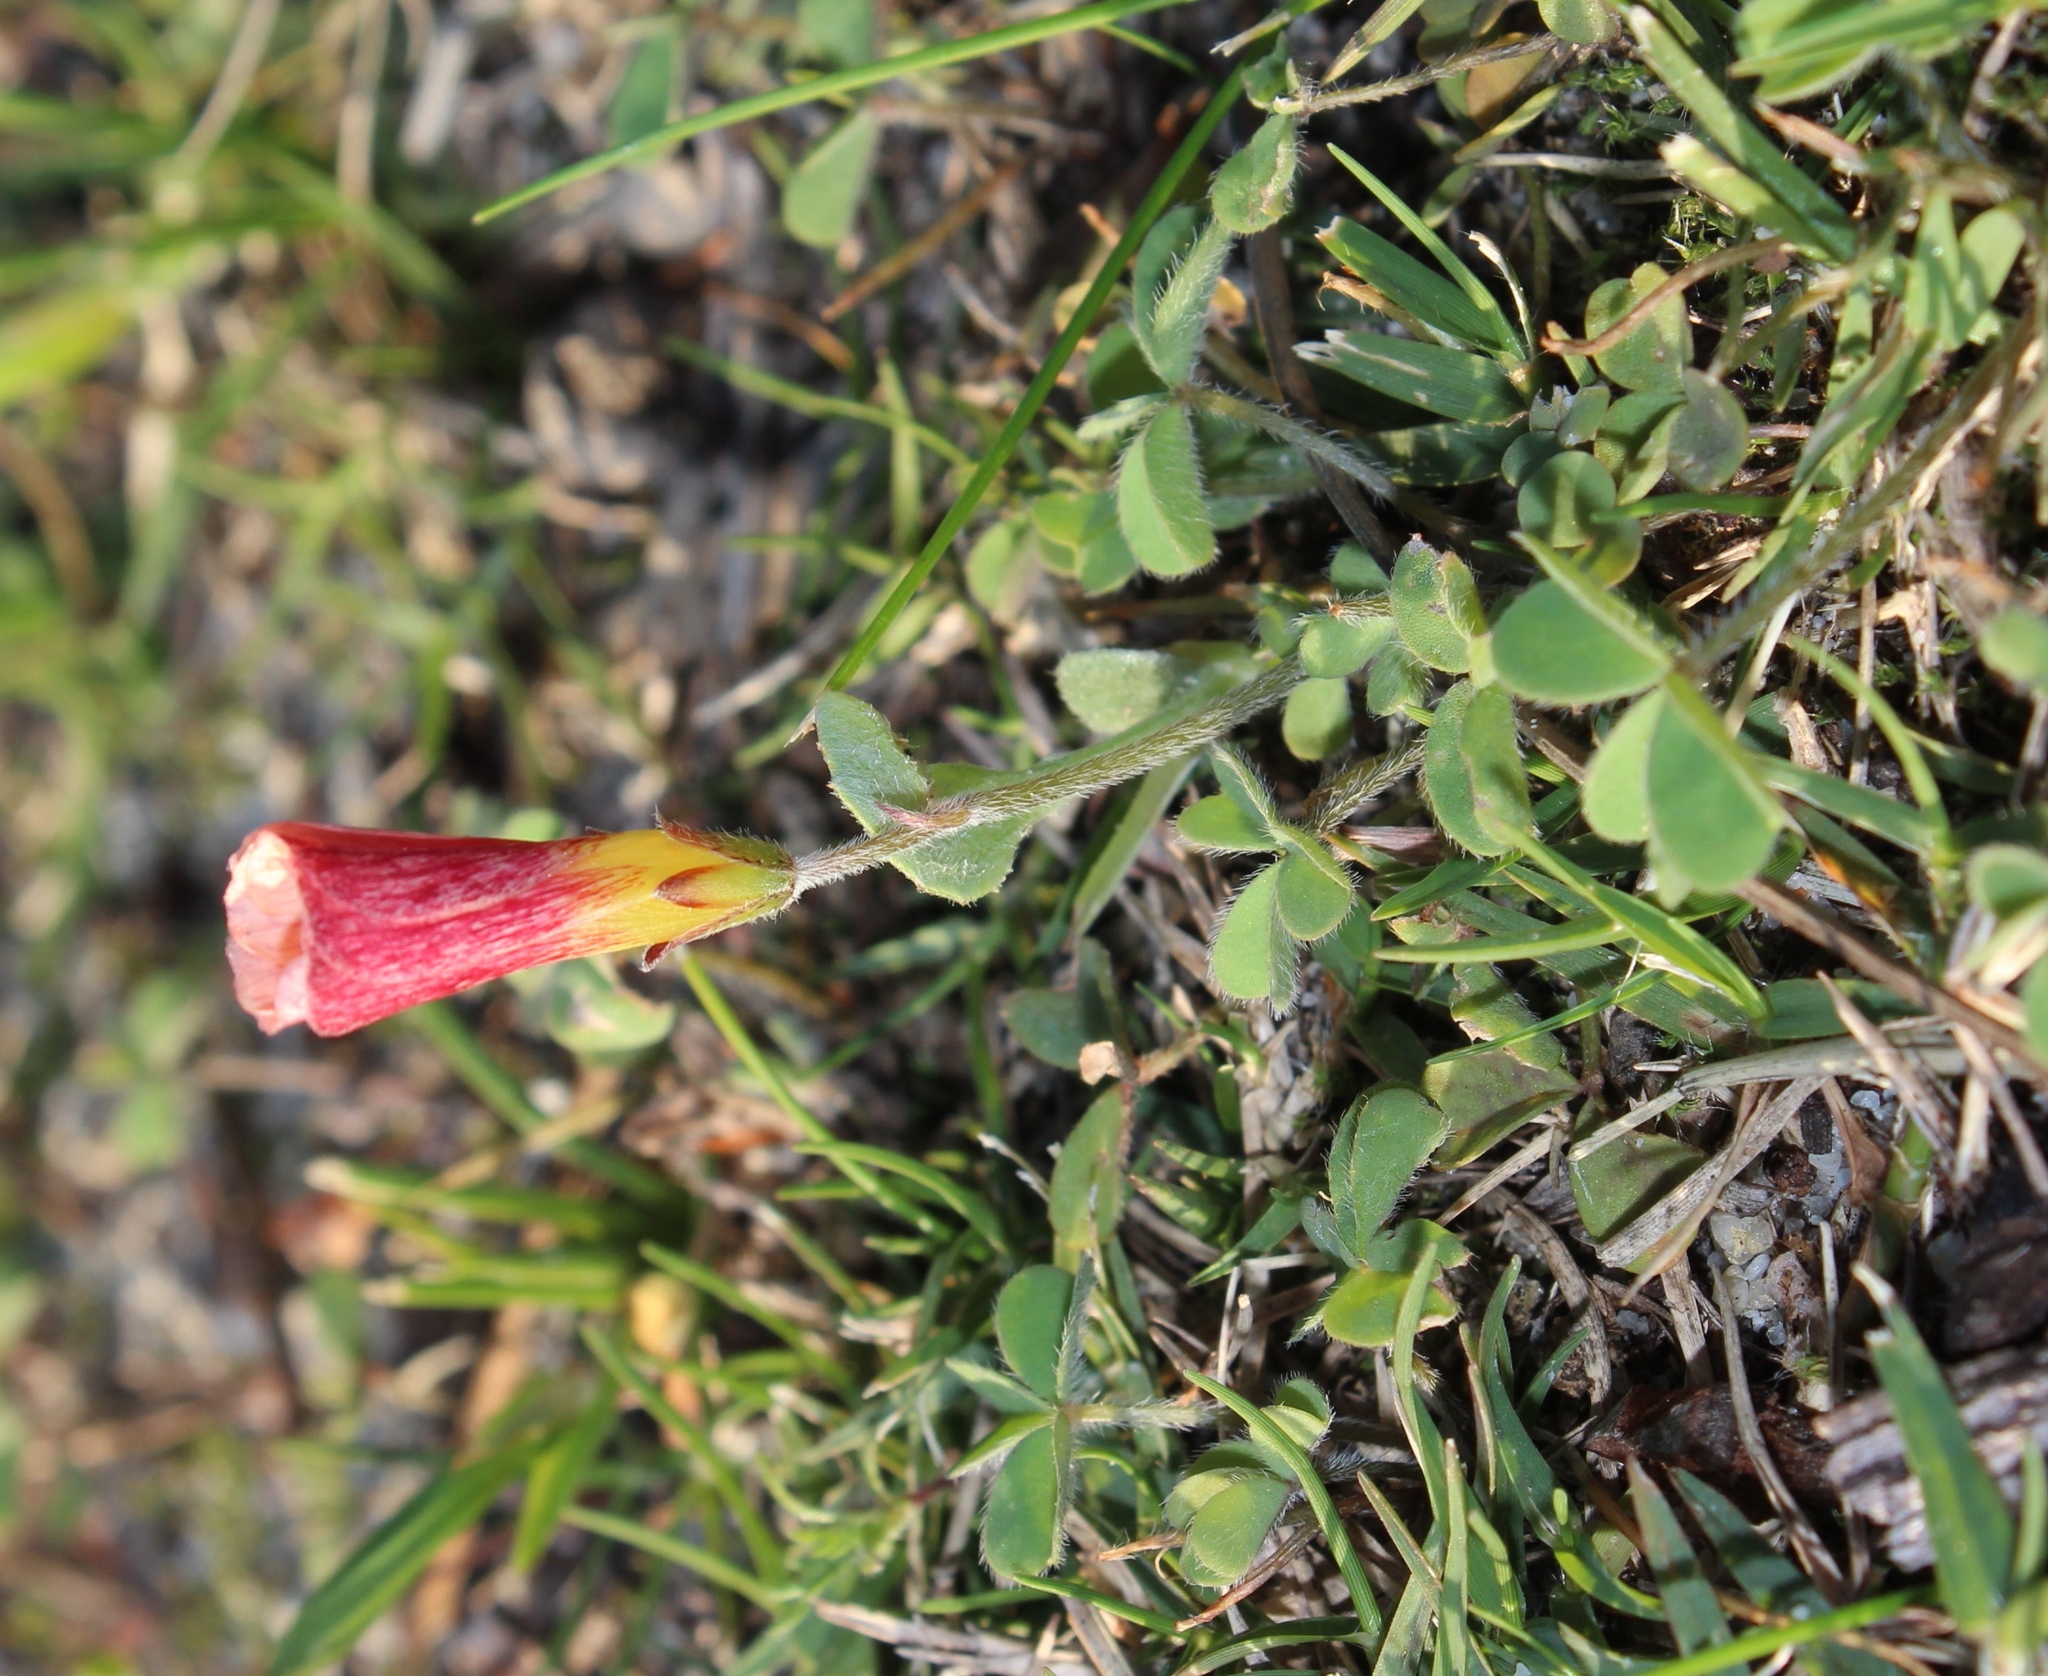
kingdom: Plantae
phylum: Tracheophyta
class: Magnoliopsida
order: Oxalidales
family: Oxalidaceae
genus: Oxalis
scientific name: Oxalis obtusa
